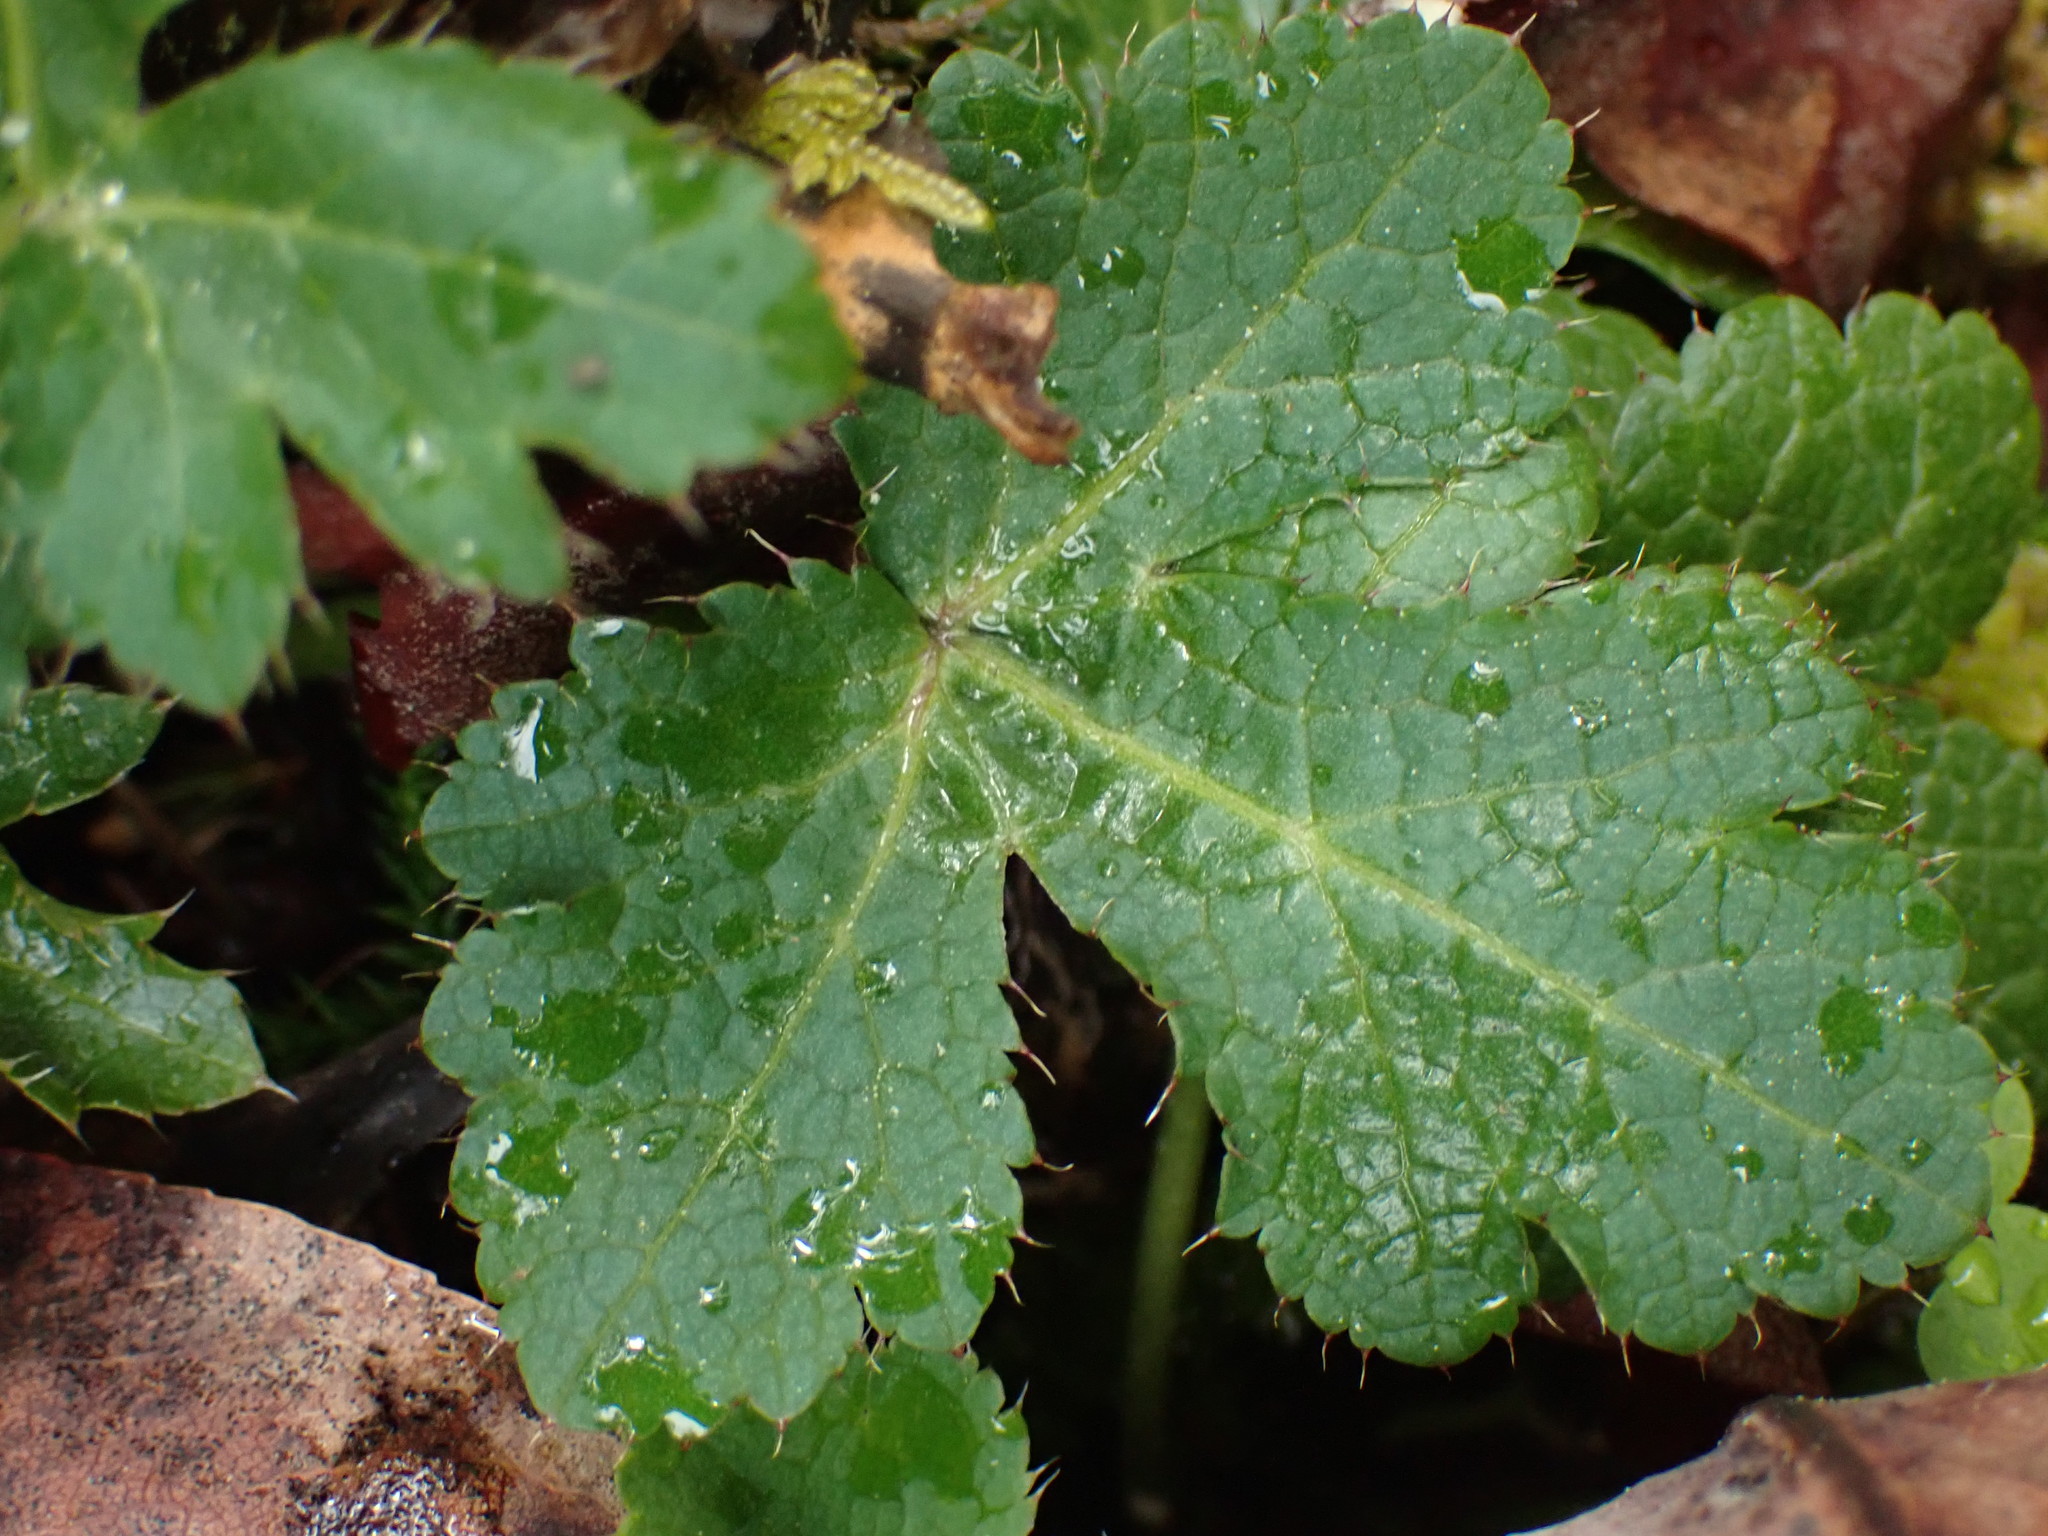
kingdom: Plantae
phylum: Tracheophyta
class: Magnoliopsida
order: Apiales
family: Apiaceae
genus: Sanicula
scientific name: Sanicula crassicaulis
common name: Western snakeroot
